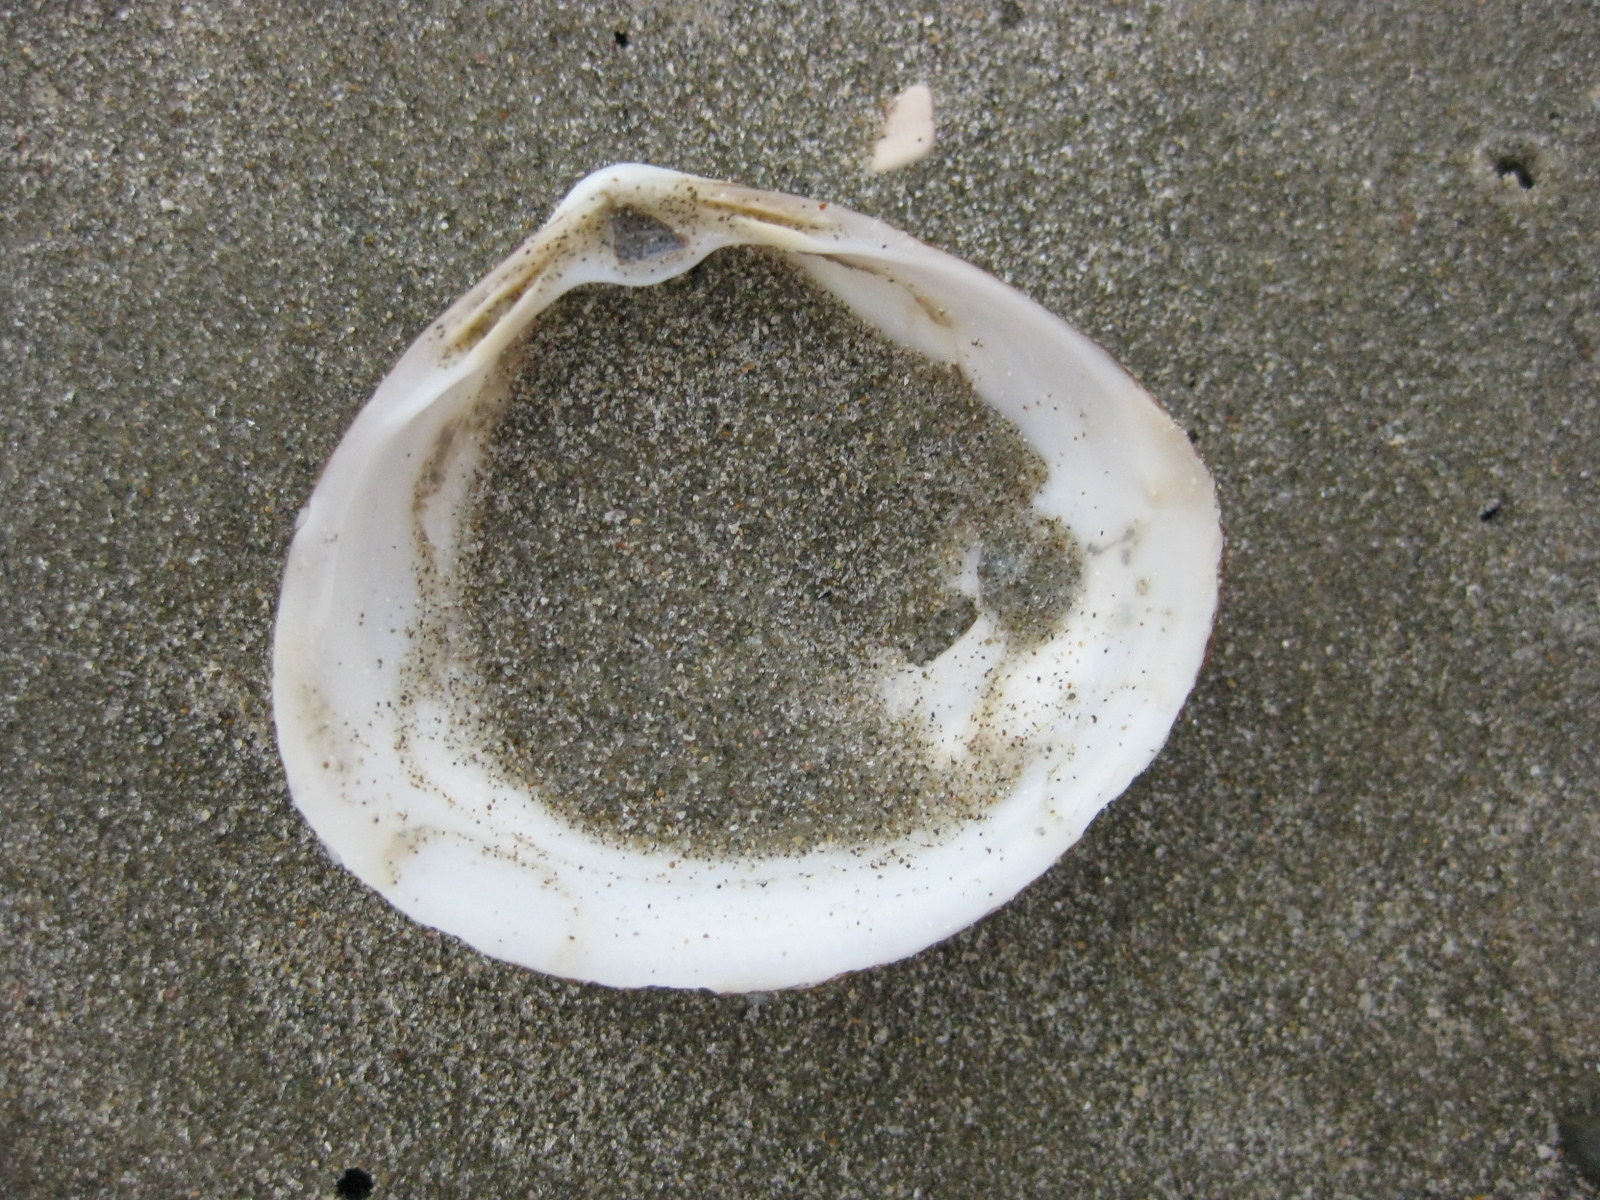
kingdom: Animalia
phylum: Mollusca
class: Bivalvia
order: Venerida
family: Mactridae
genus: Spisula
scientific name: Spisula discors
